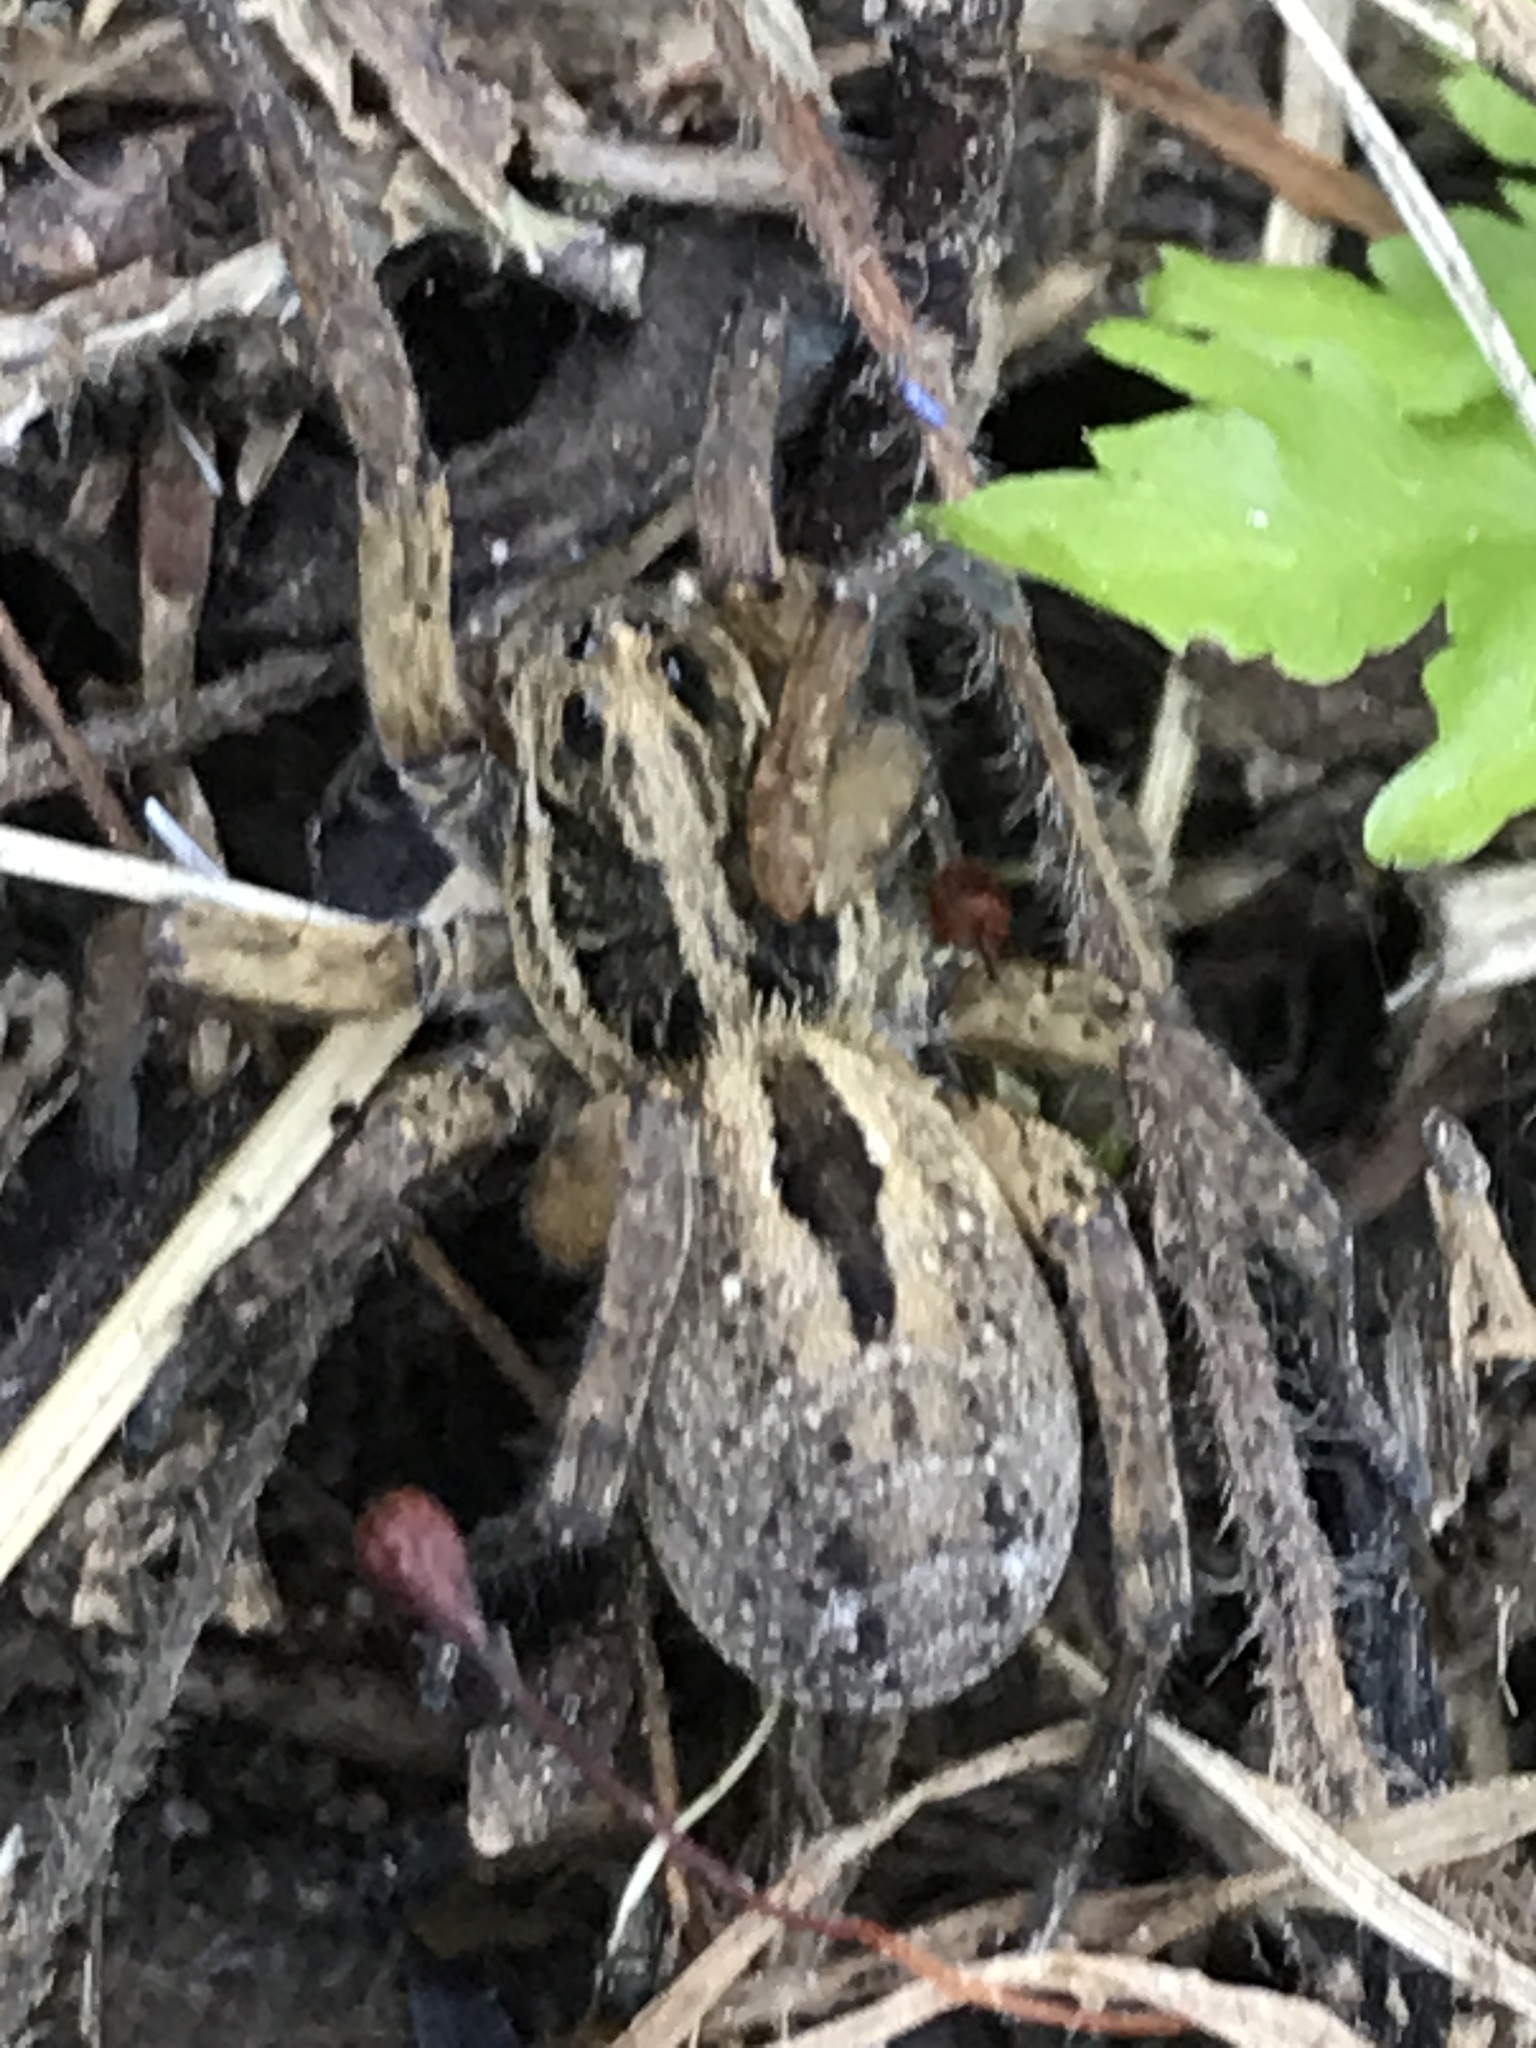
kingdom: Animalia
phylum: Arthropoda
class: Arachnida
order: Araneae
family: Lycosidae
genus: Tigrosa
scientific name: Tigrosa annexa
